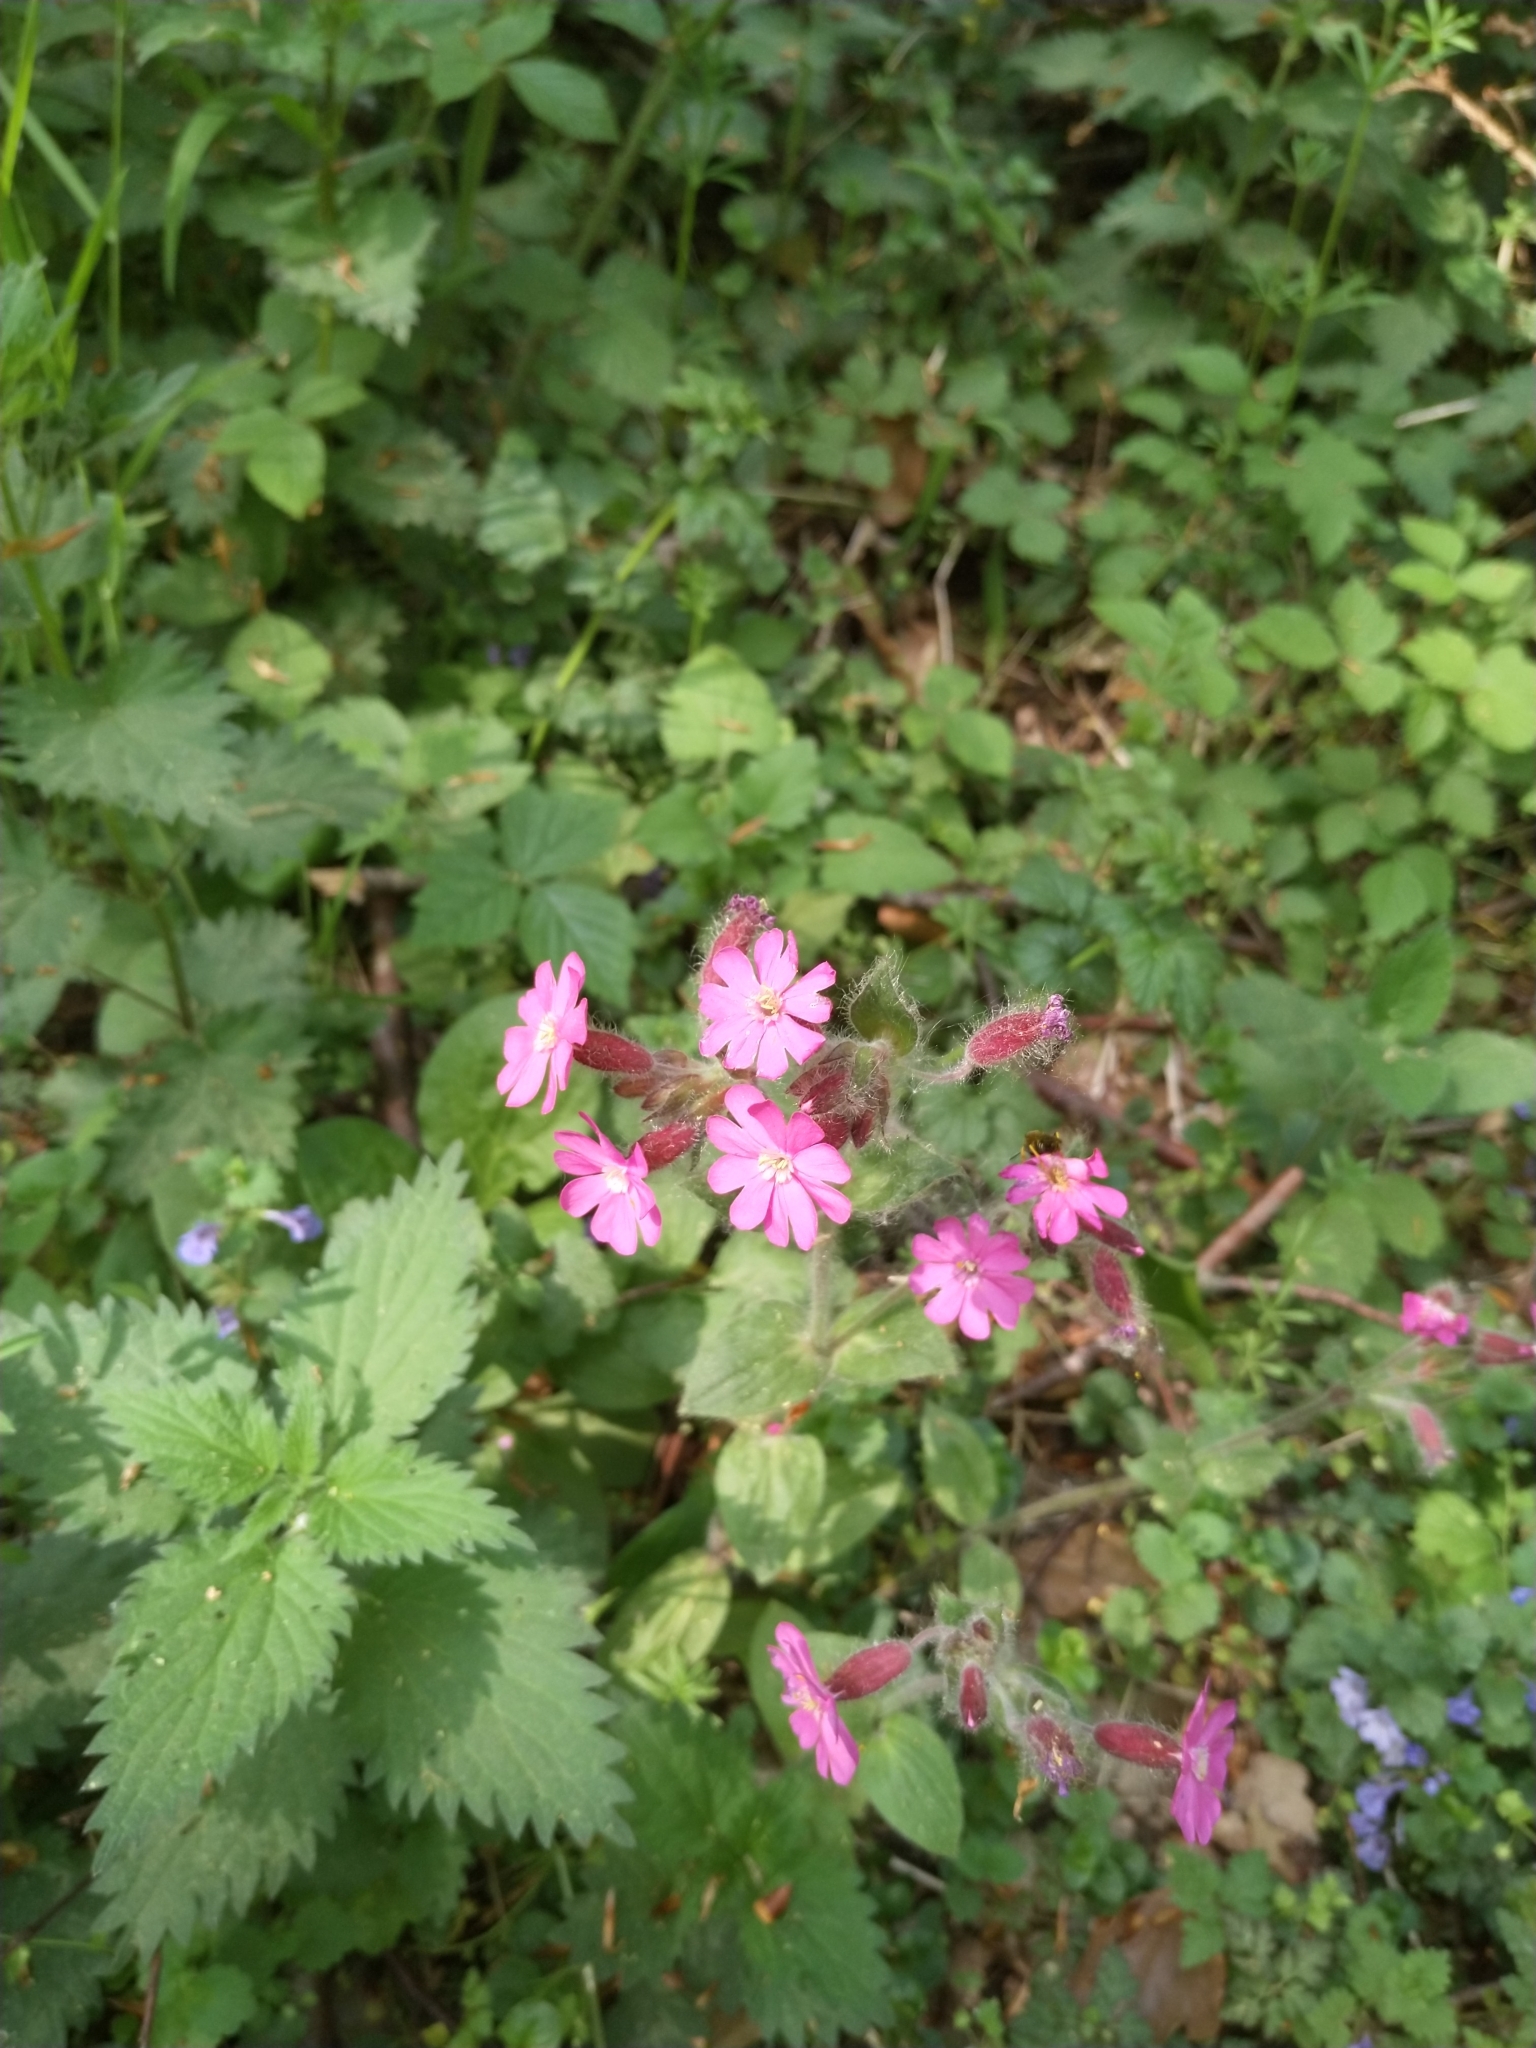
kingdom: Plantae
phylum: Tracheophyta
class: Magnoliopsida
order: Caryophyllales
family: Caryophyllaceae
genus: Silene
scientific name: Silene dioica
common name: Red campion
